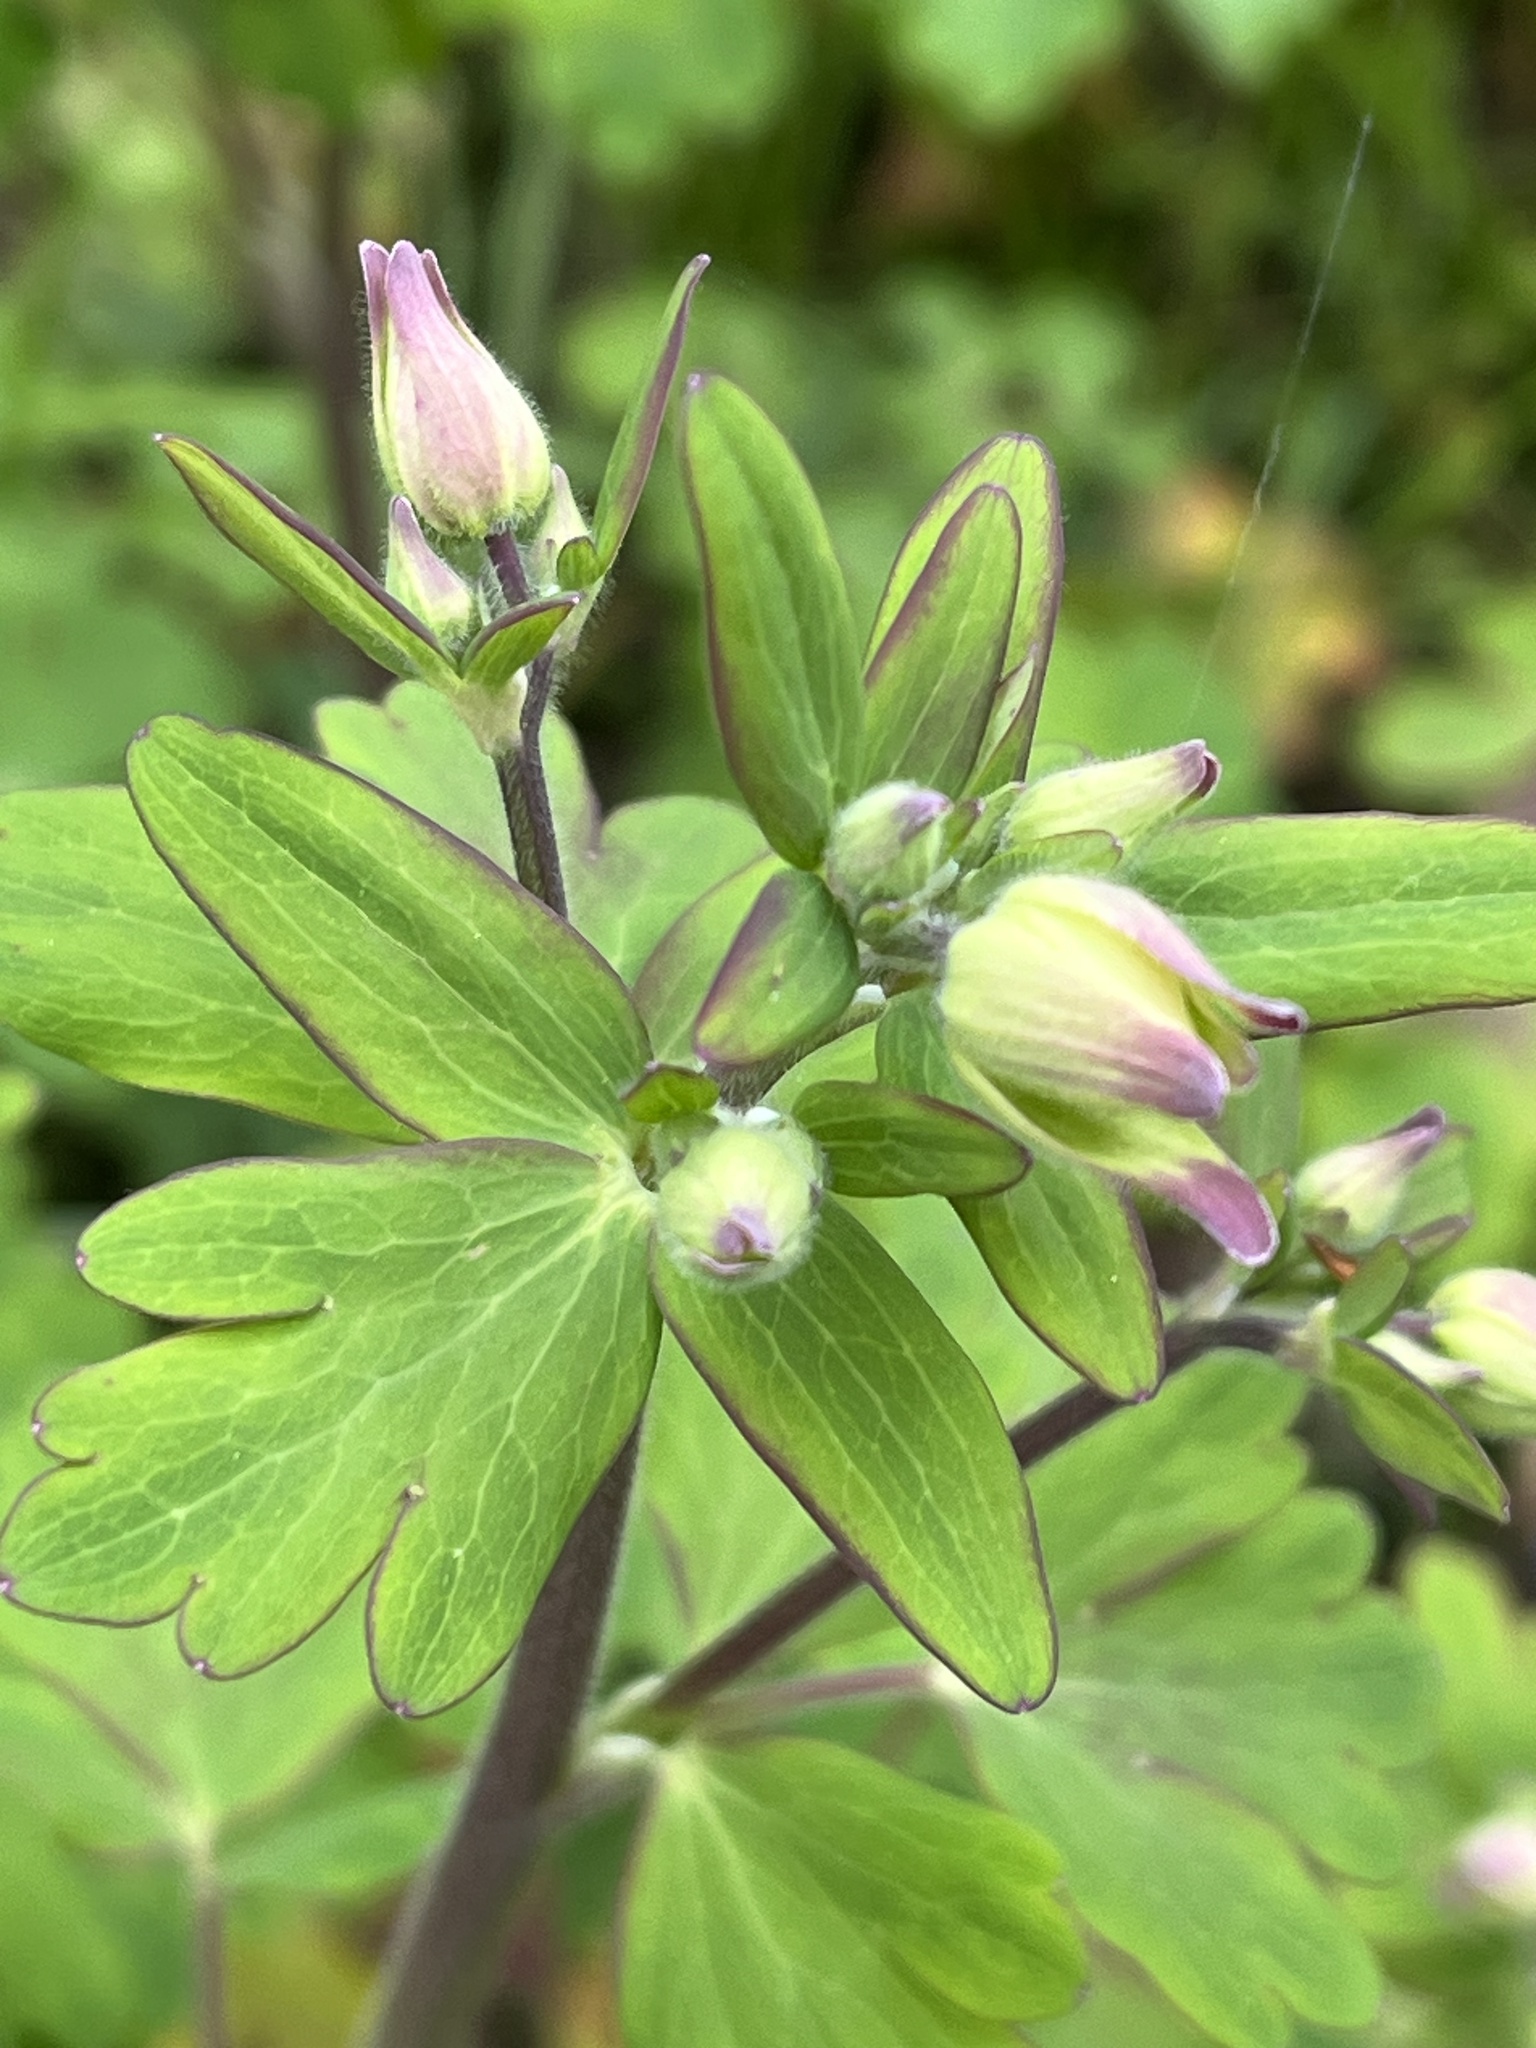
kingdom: Plantae
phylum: Tracheophyta
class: Magnoliopsida
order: Ranunculales
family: Ranunculaceae
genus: Aquilegia
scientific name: Aquilegia vulgaris
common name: Columbine
